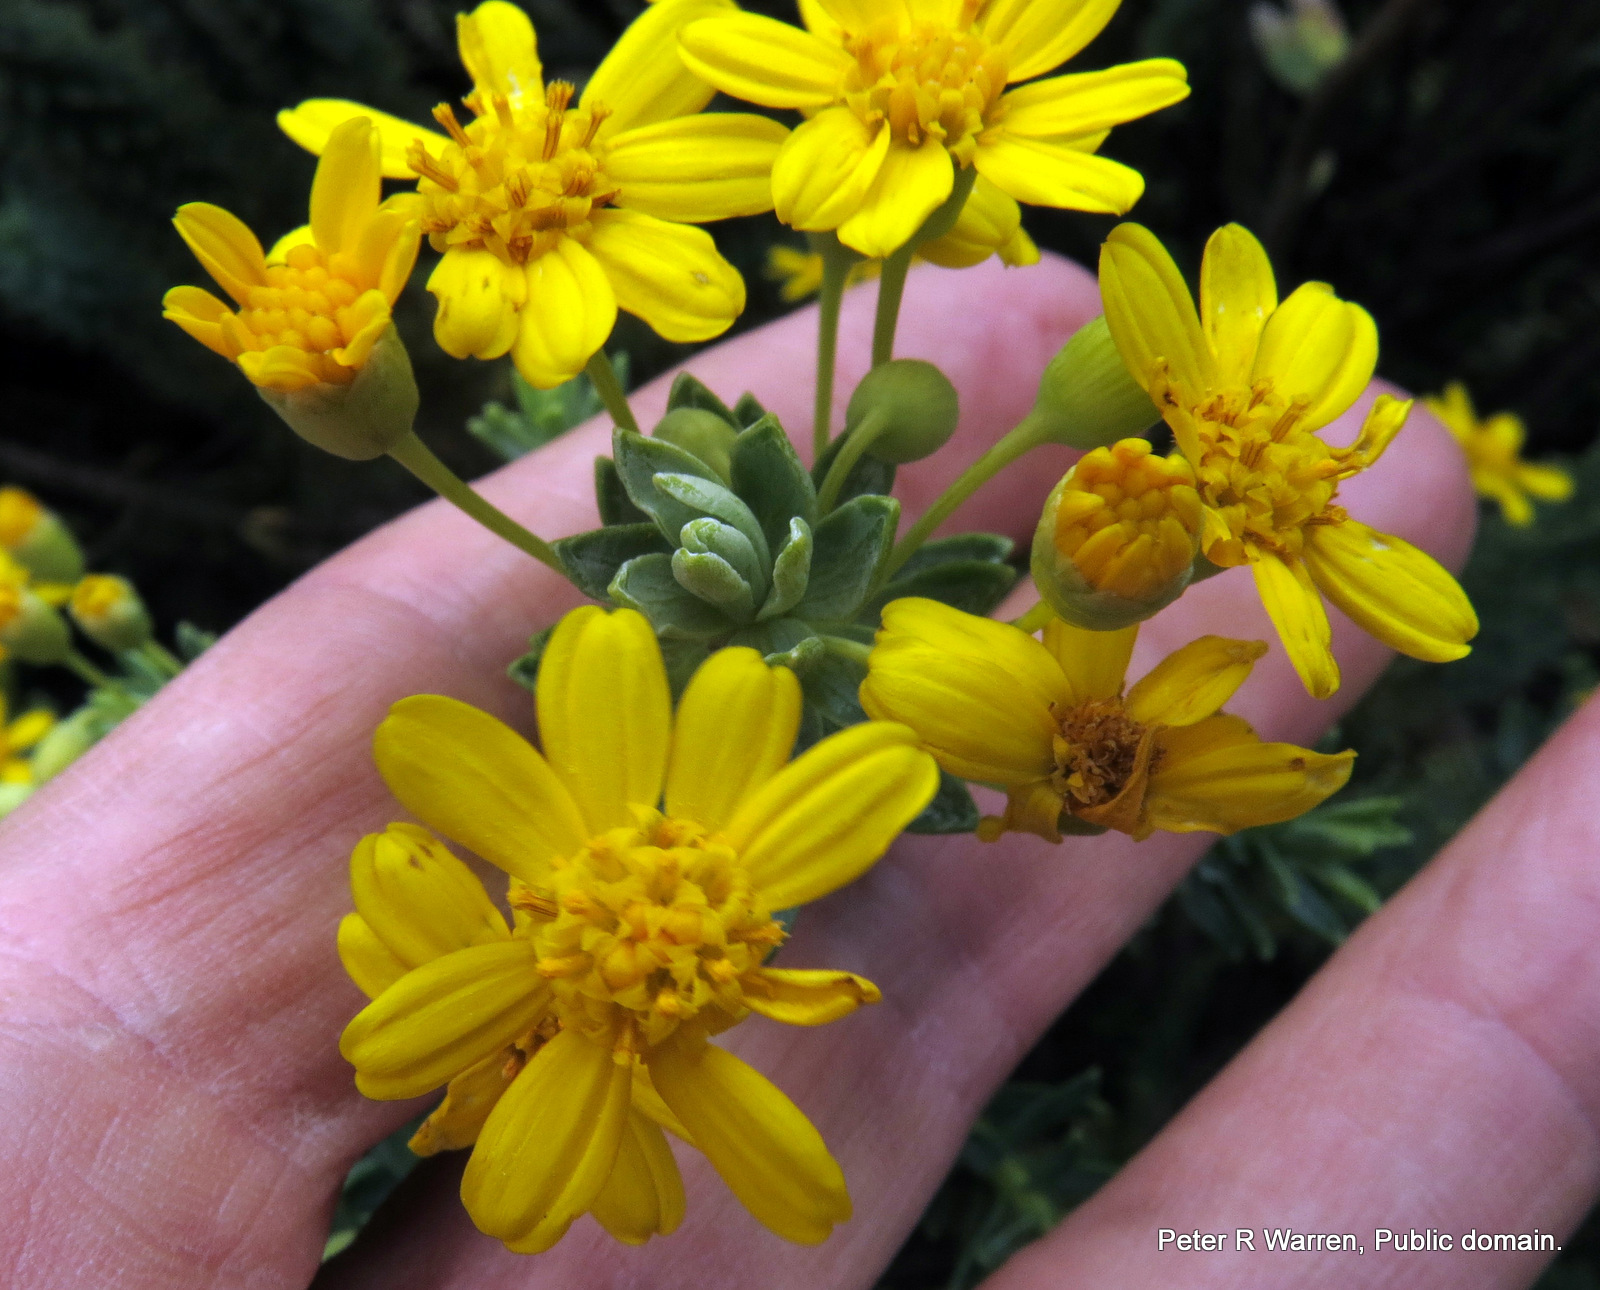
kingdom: Plantae
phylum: Tracheophyta
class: Magnoliopsida
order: Asterales
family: Asteraceae
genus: Euryops
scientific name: Euryops tysonii
